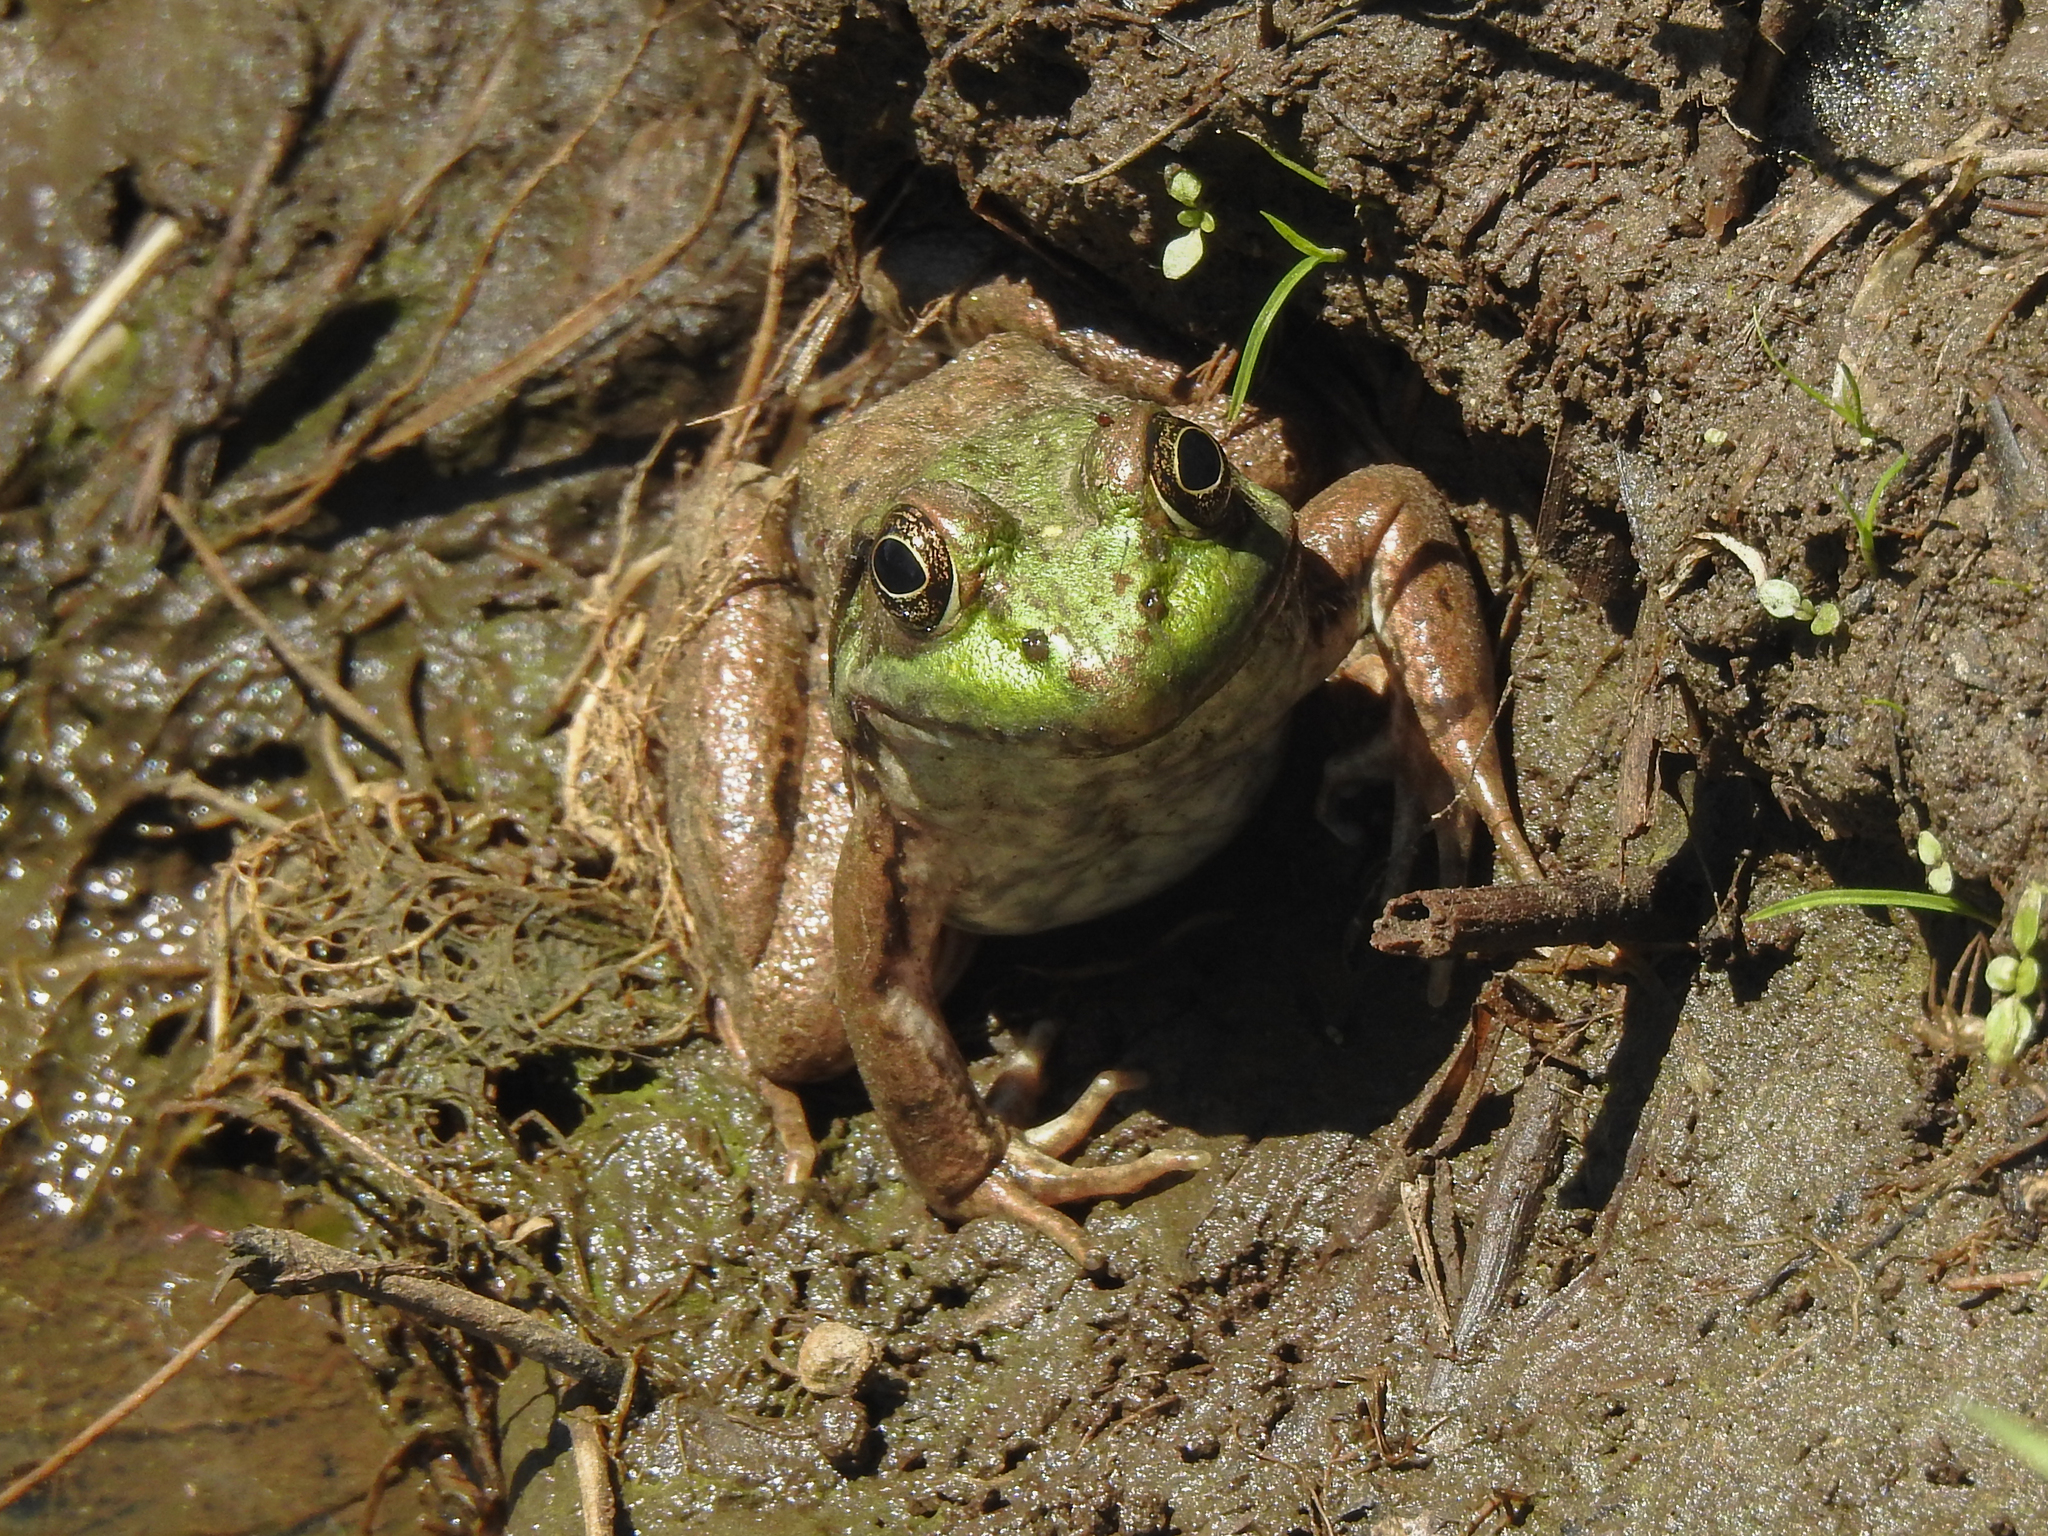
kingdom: Animalia
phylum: Chordata
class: Amphibia
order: Anura
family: Ranidae
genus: Lithobates
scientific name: Lithobates catesbeianus
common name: American bullfrog
